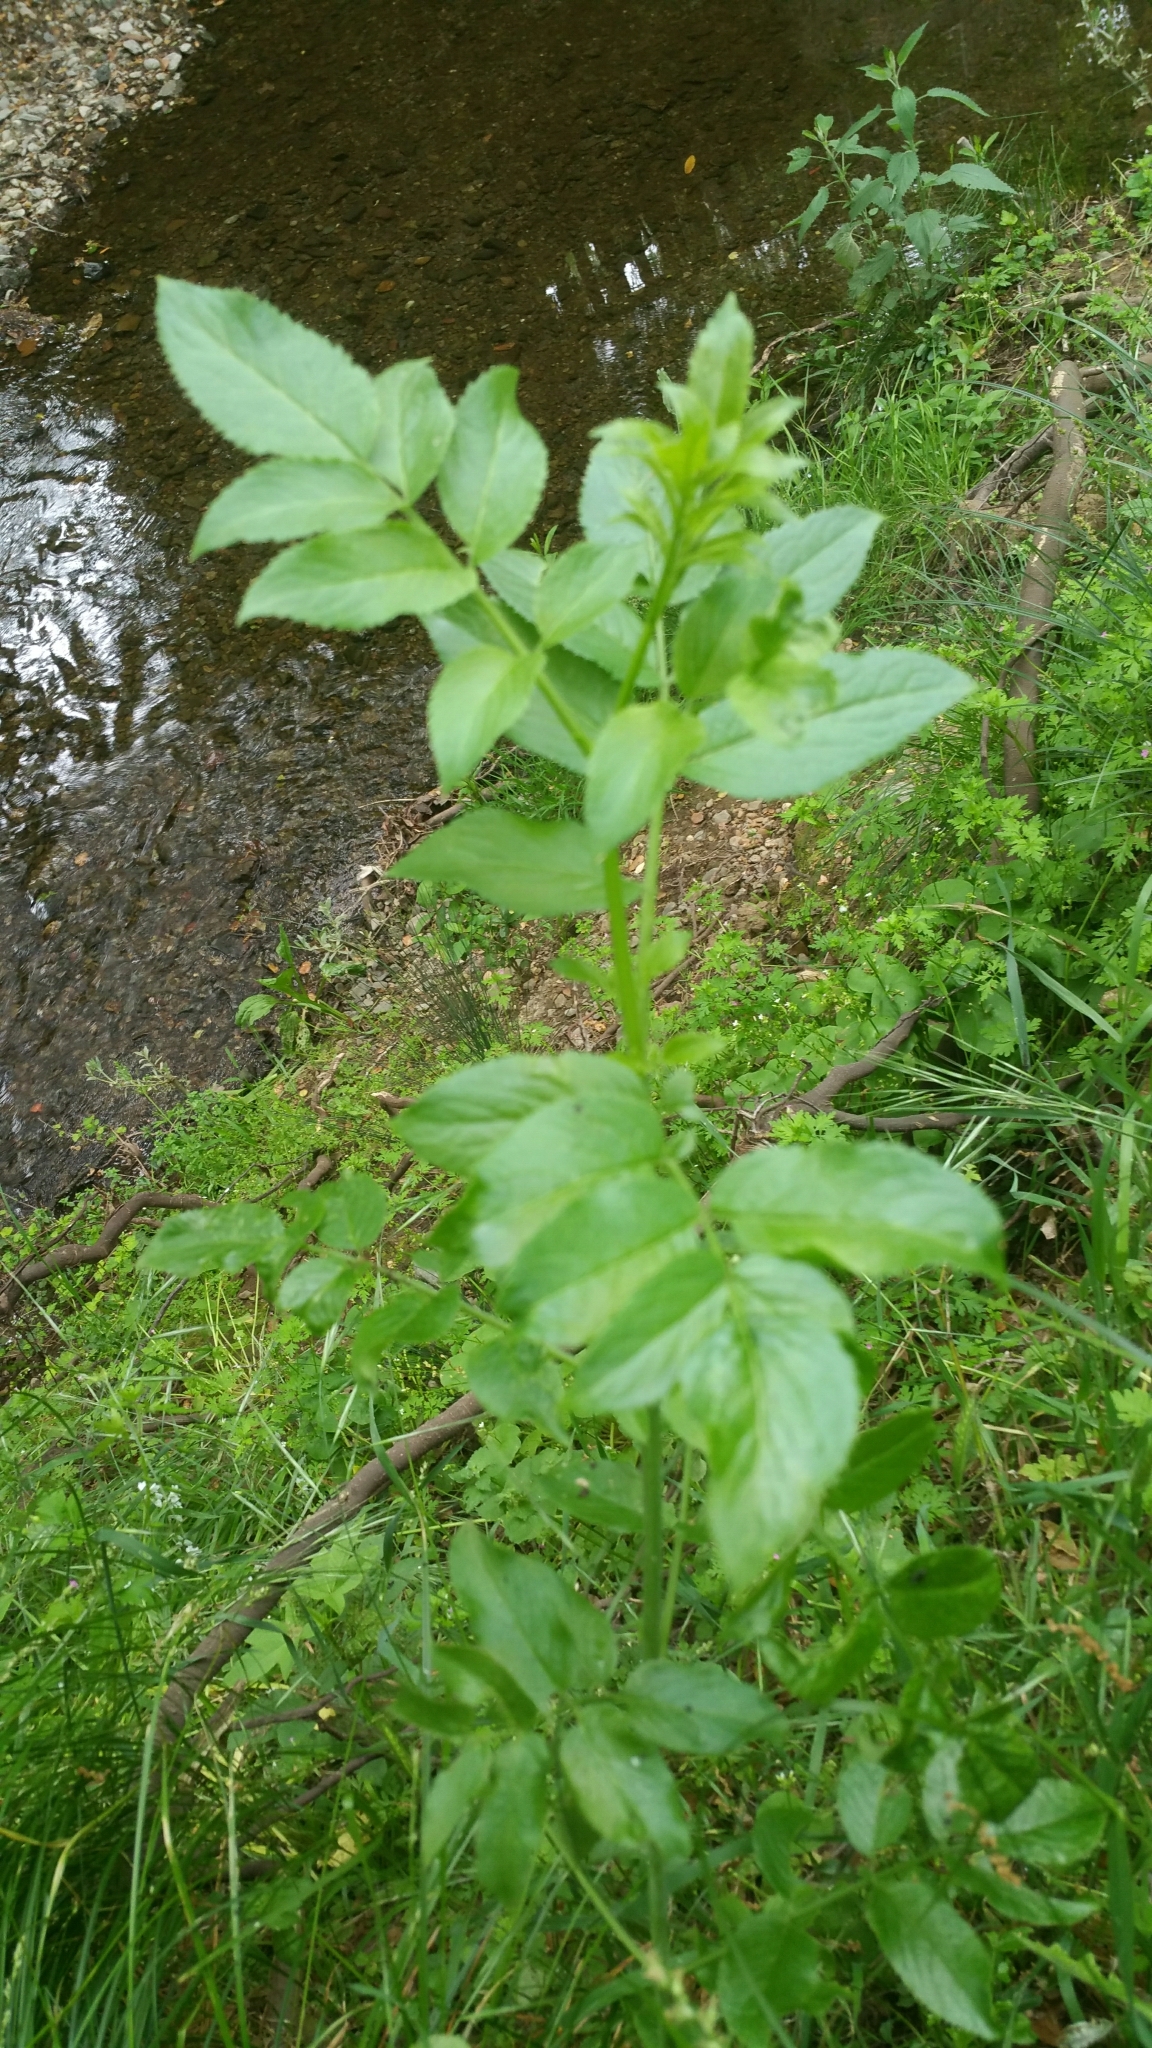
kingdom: Plantae
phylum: Tracheophyta
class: Magnoliopsida
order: Dipsacales
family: Viburnaceae
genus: Sambucus
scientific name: Sambucus cerulea
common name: Blue elder
